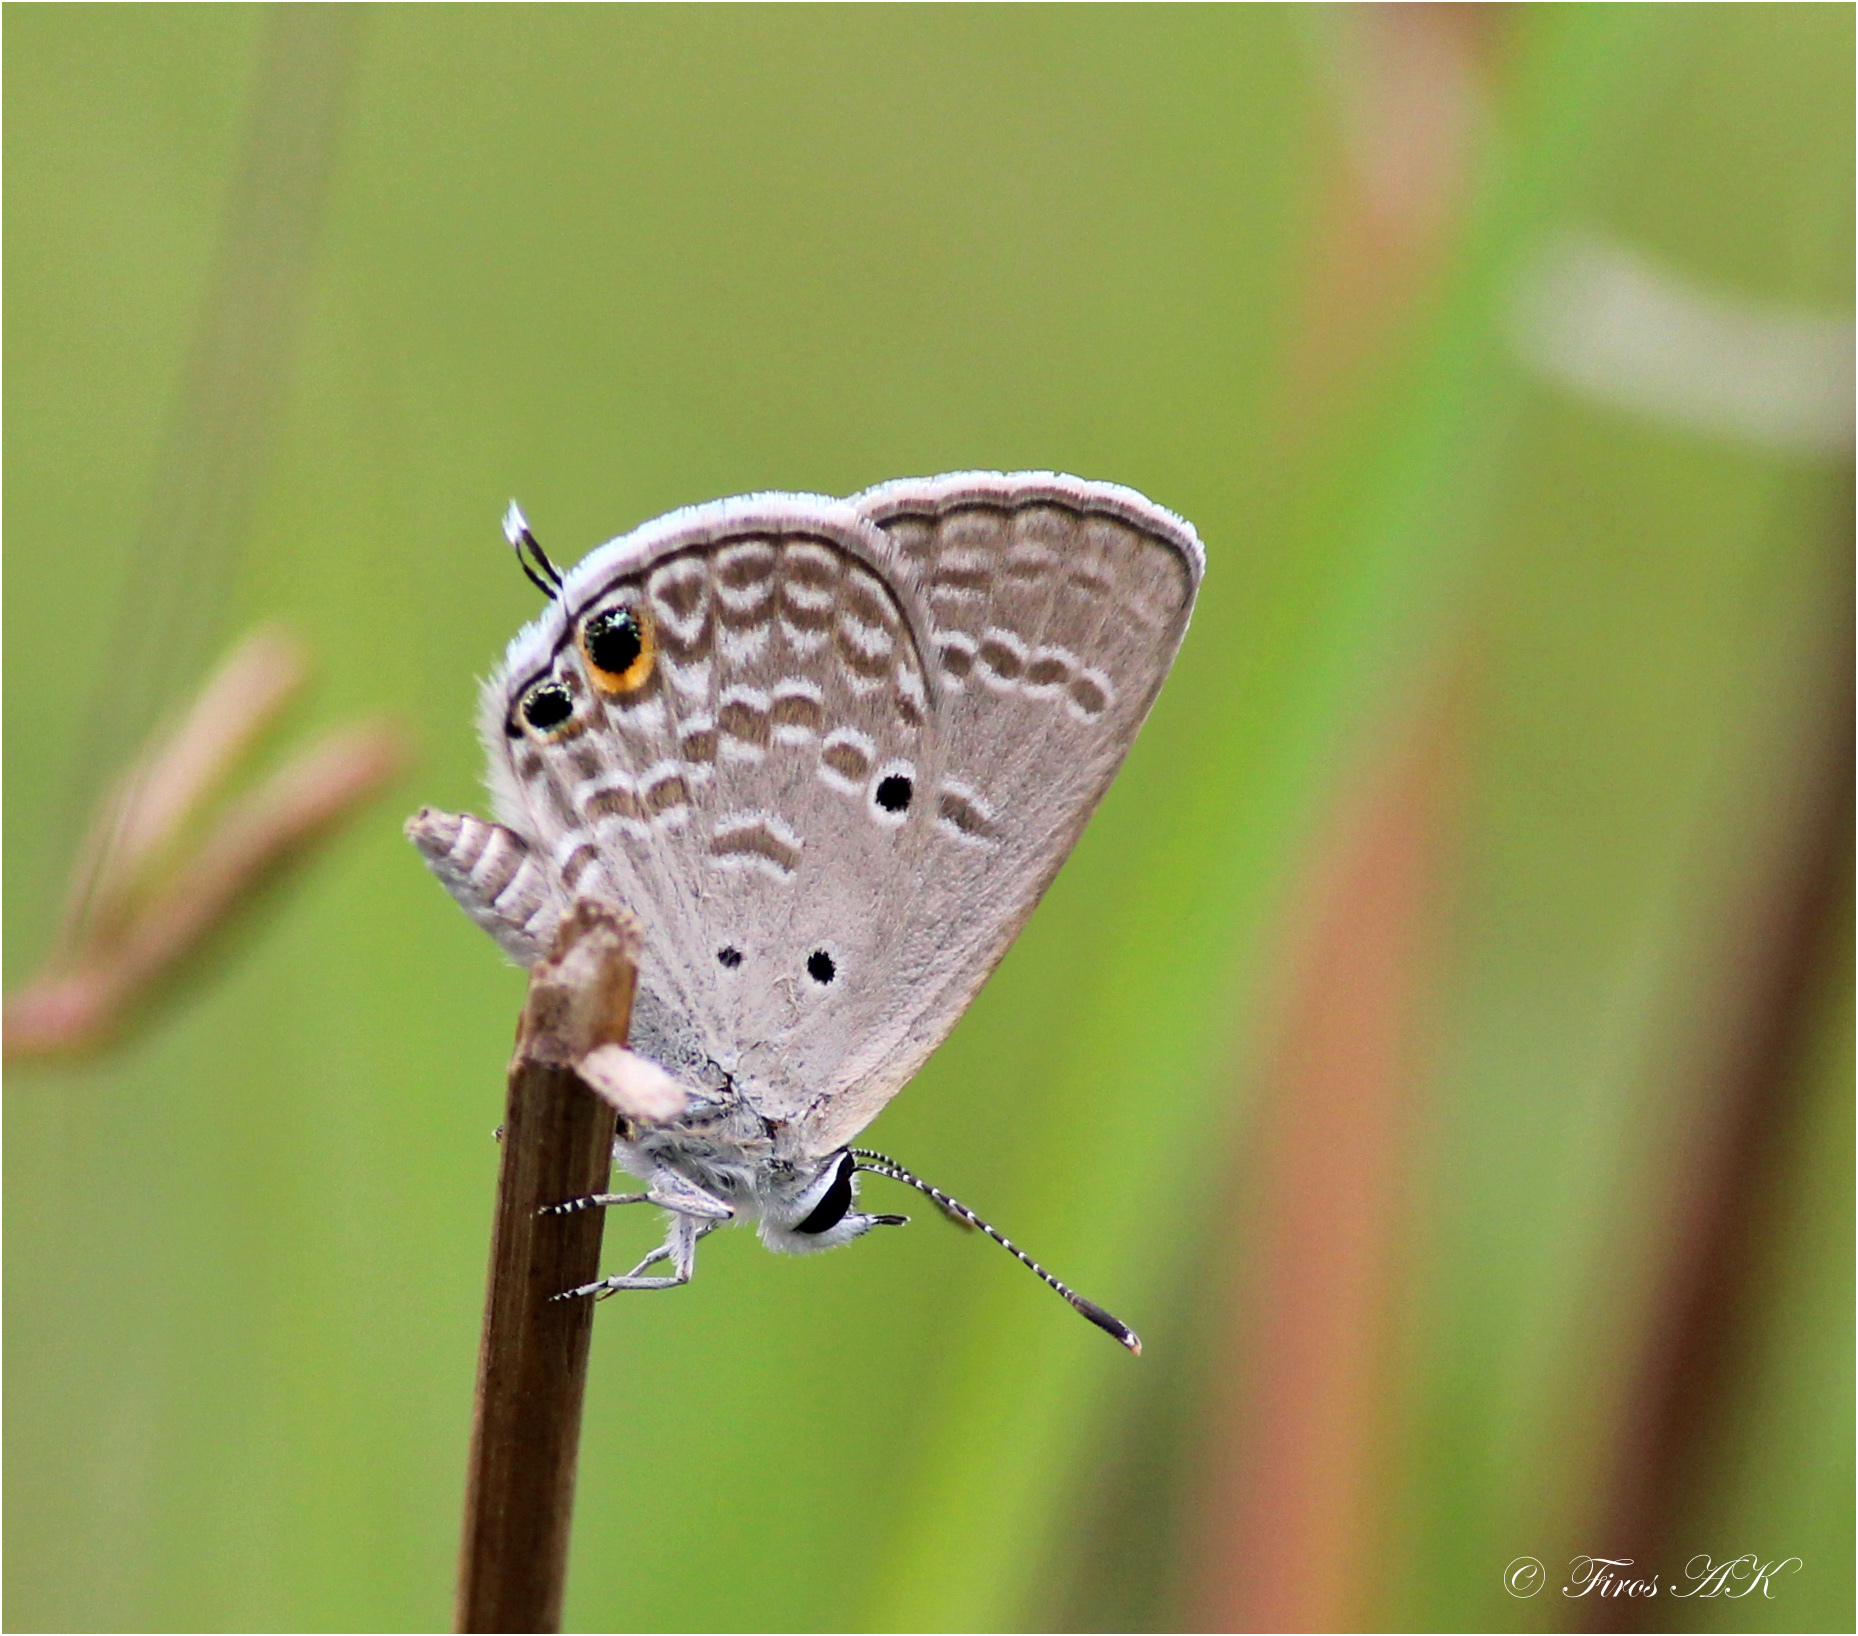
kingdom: Animalia
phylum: Arthropoda
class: Insecta
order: Lepidoptera
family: Lycaenidae
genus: Chilades
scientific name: Chilades parrhasius
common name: Small cupid
